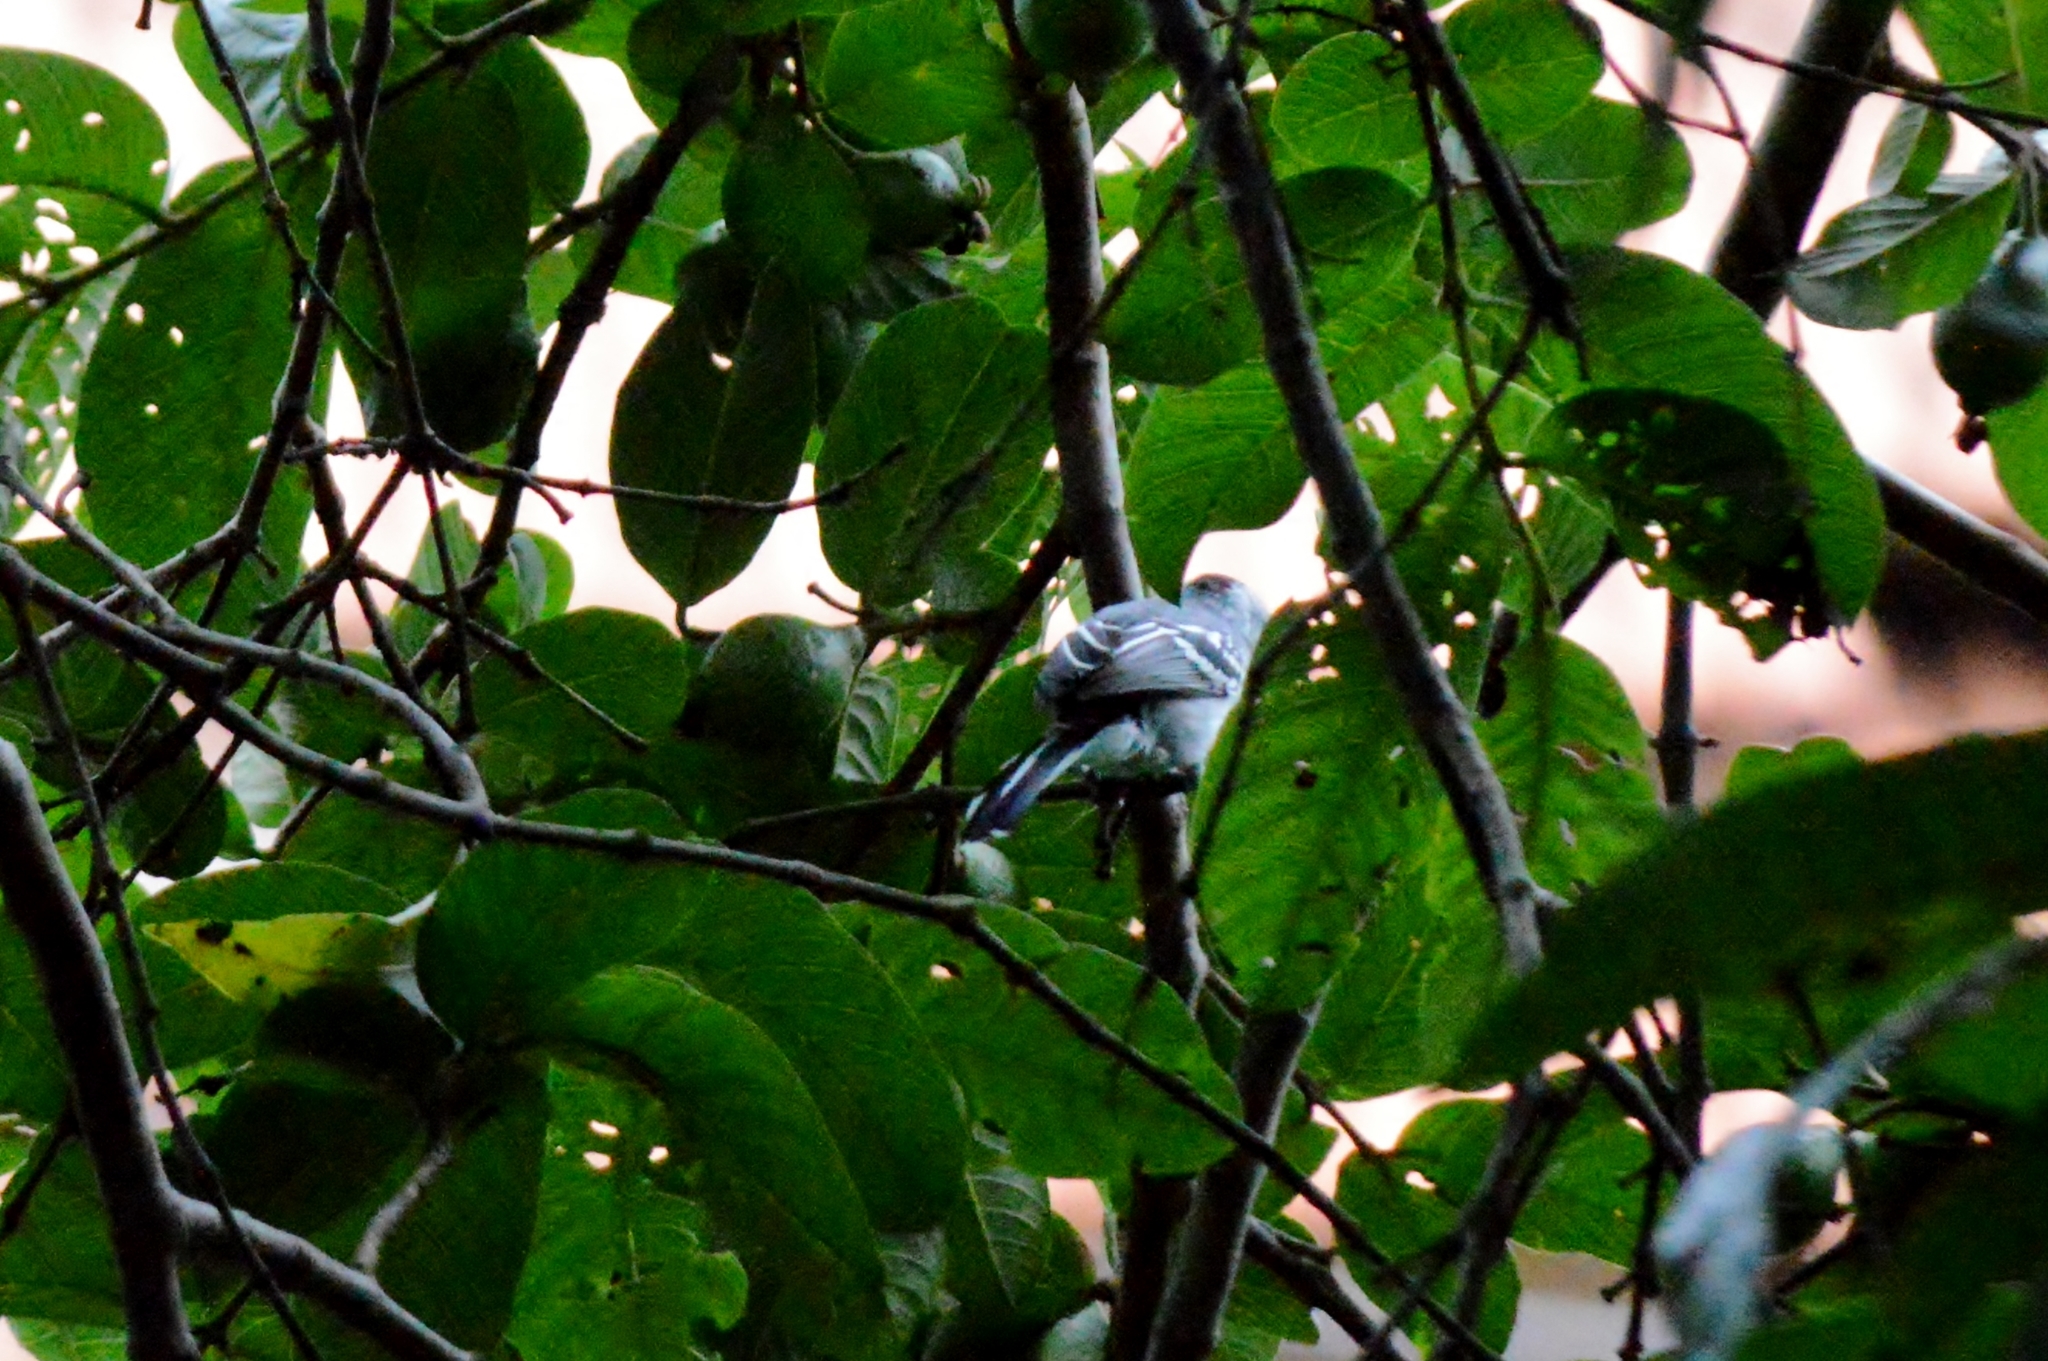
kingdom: Animalia
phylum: Chordata
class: Aves
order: Passeriformes
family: Thamnophilidae
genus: Thamnophilus
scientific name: Thamnophilus pelzelni
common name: Planalto slaty-antshrike
